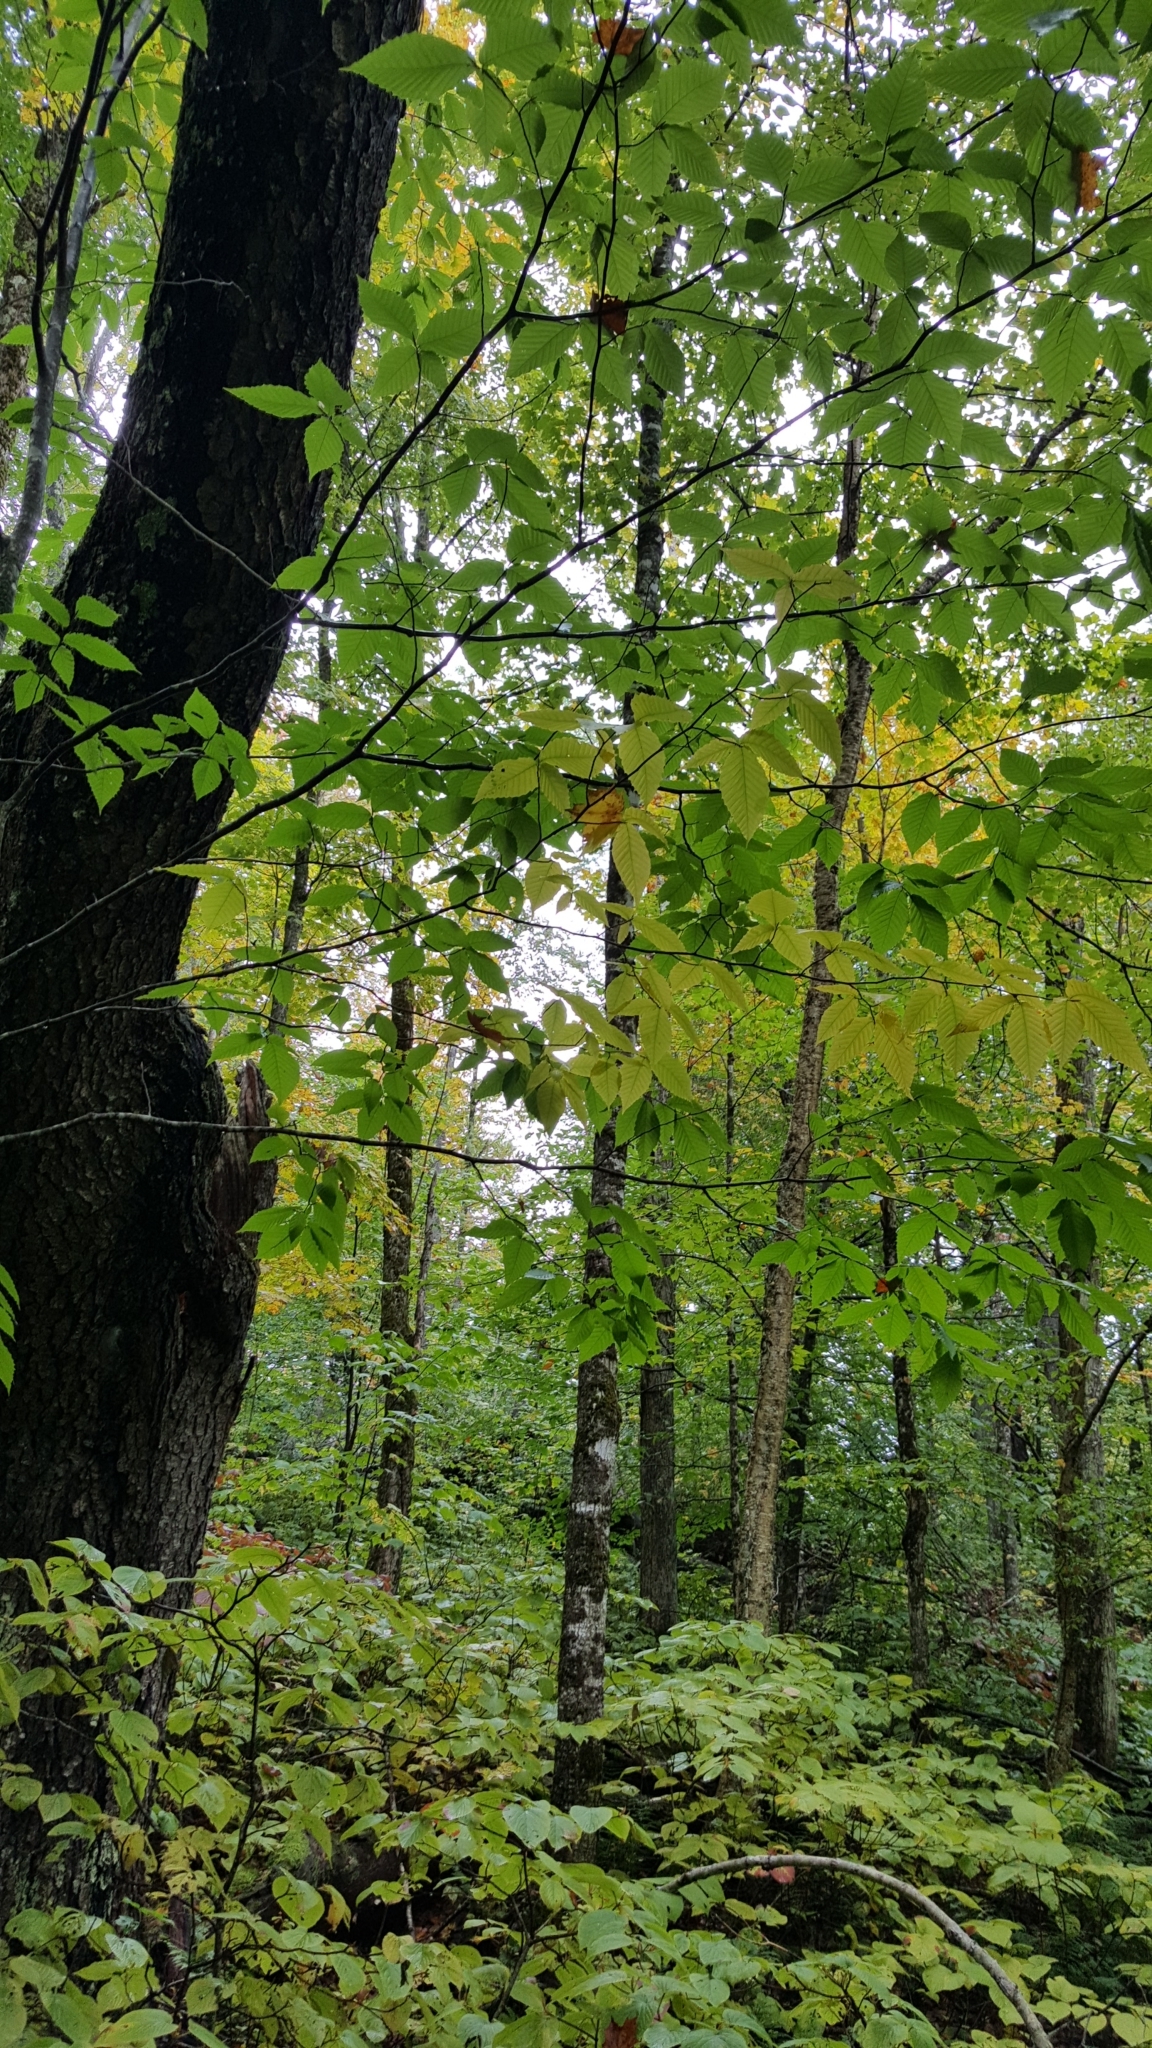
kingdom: Plantae
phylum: Tracheophyta
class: Magnoliopsida
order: Fagales
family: Fagaceae
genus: Fagus
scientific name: Fagus grandifolia
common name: American beech
